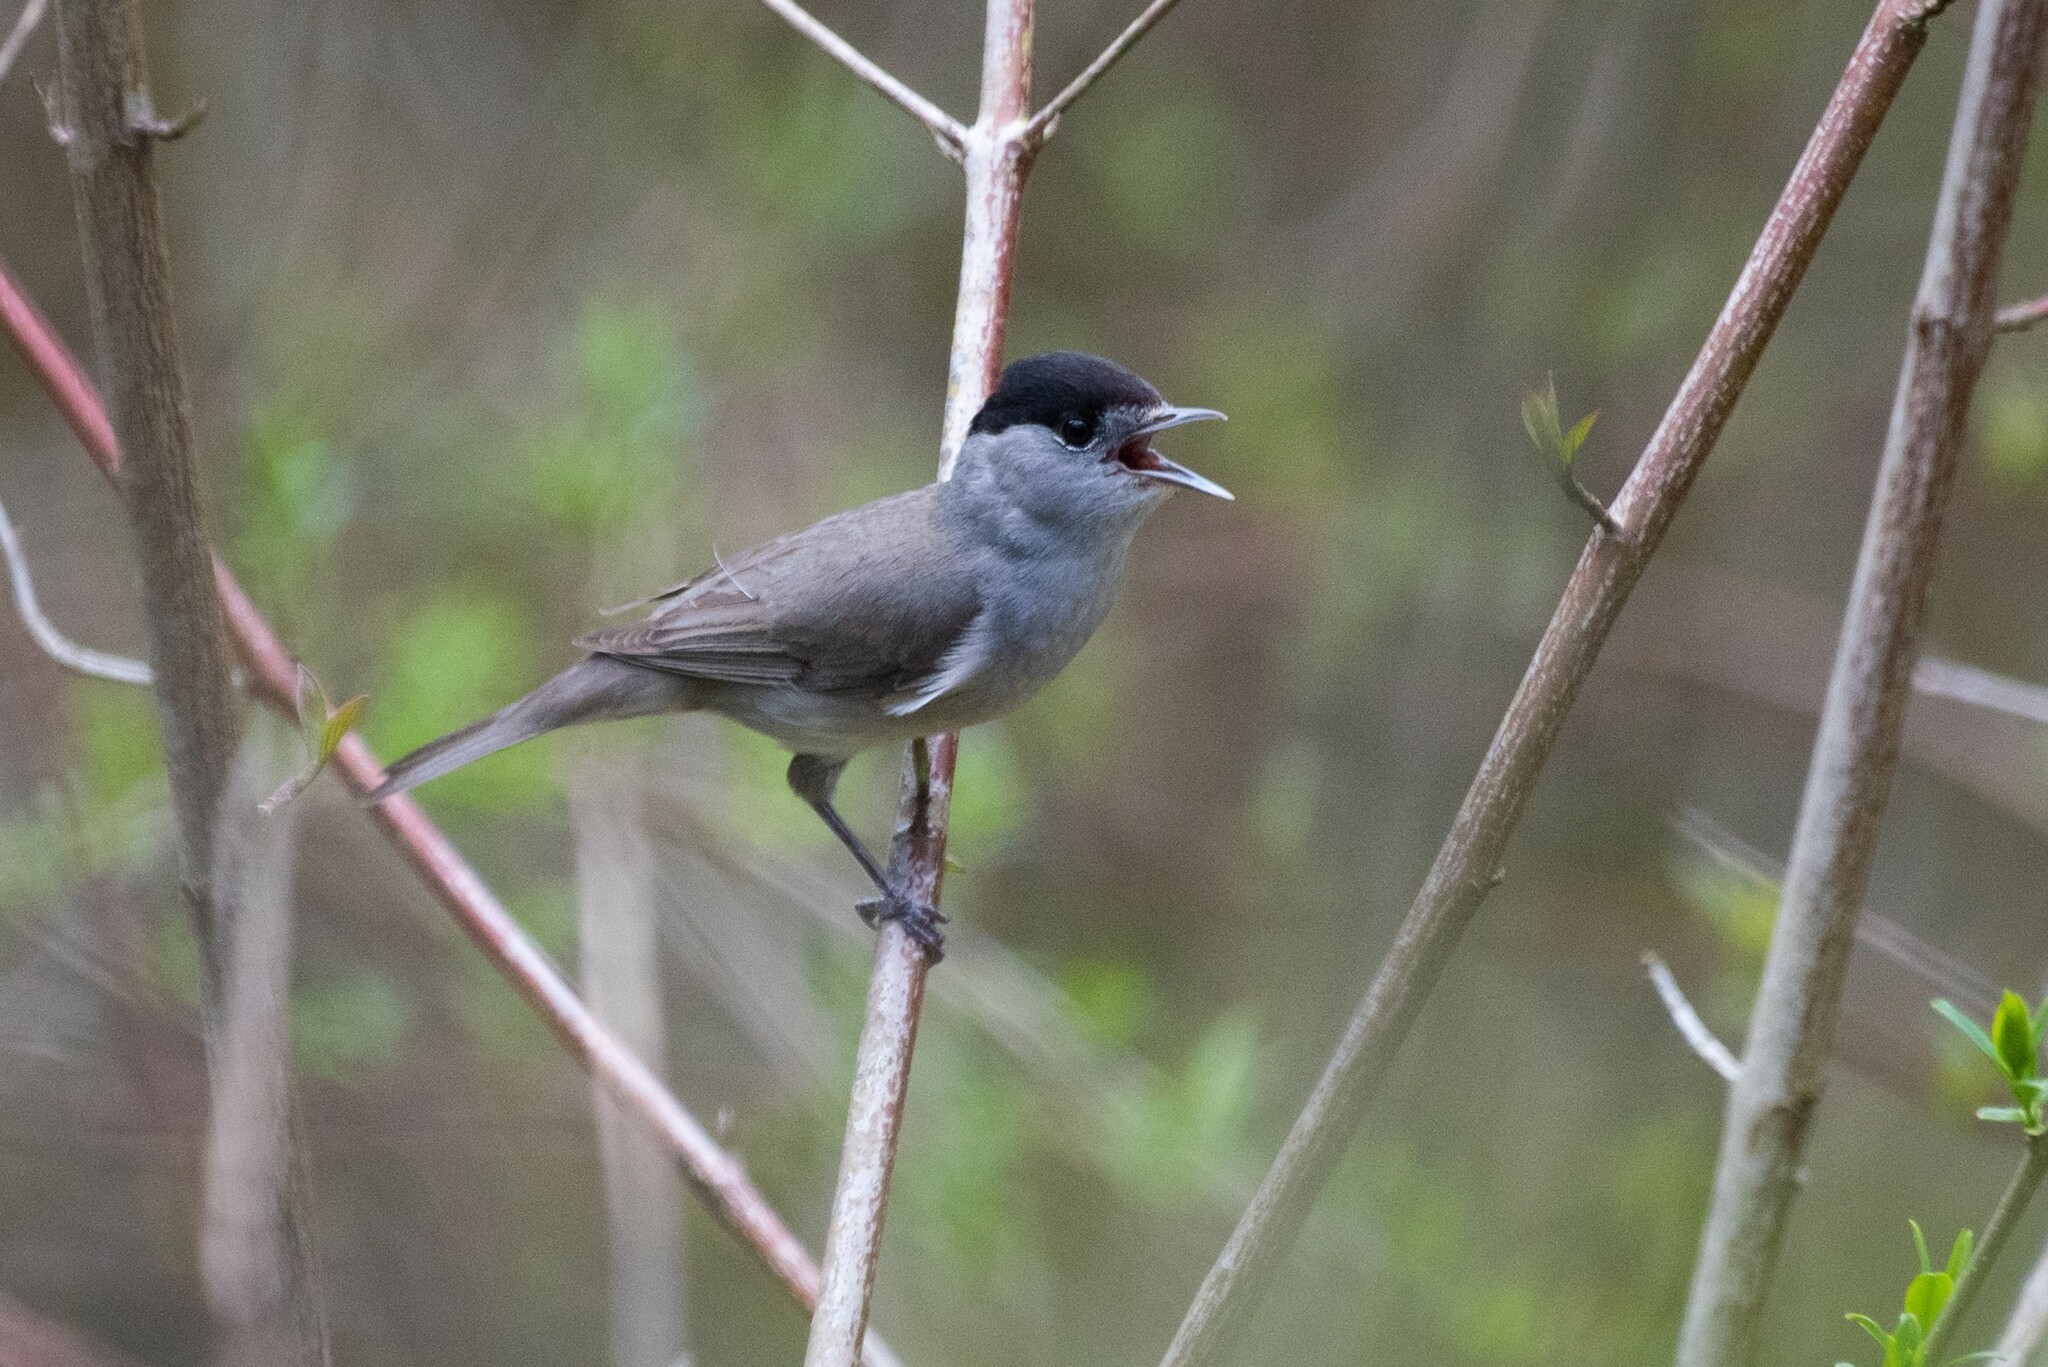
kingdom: Animalia
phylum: Chordata
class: Aves
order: Passeriformes
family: Sylviidae
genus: Sylvia
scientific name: Sylvia atricapilla
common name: Eurasian blackcap
